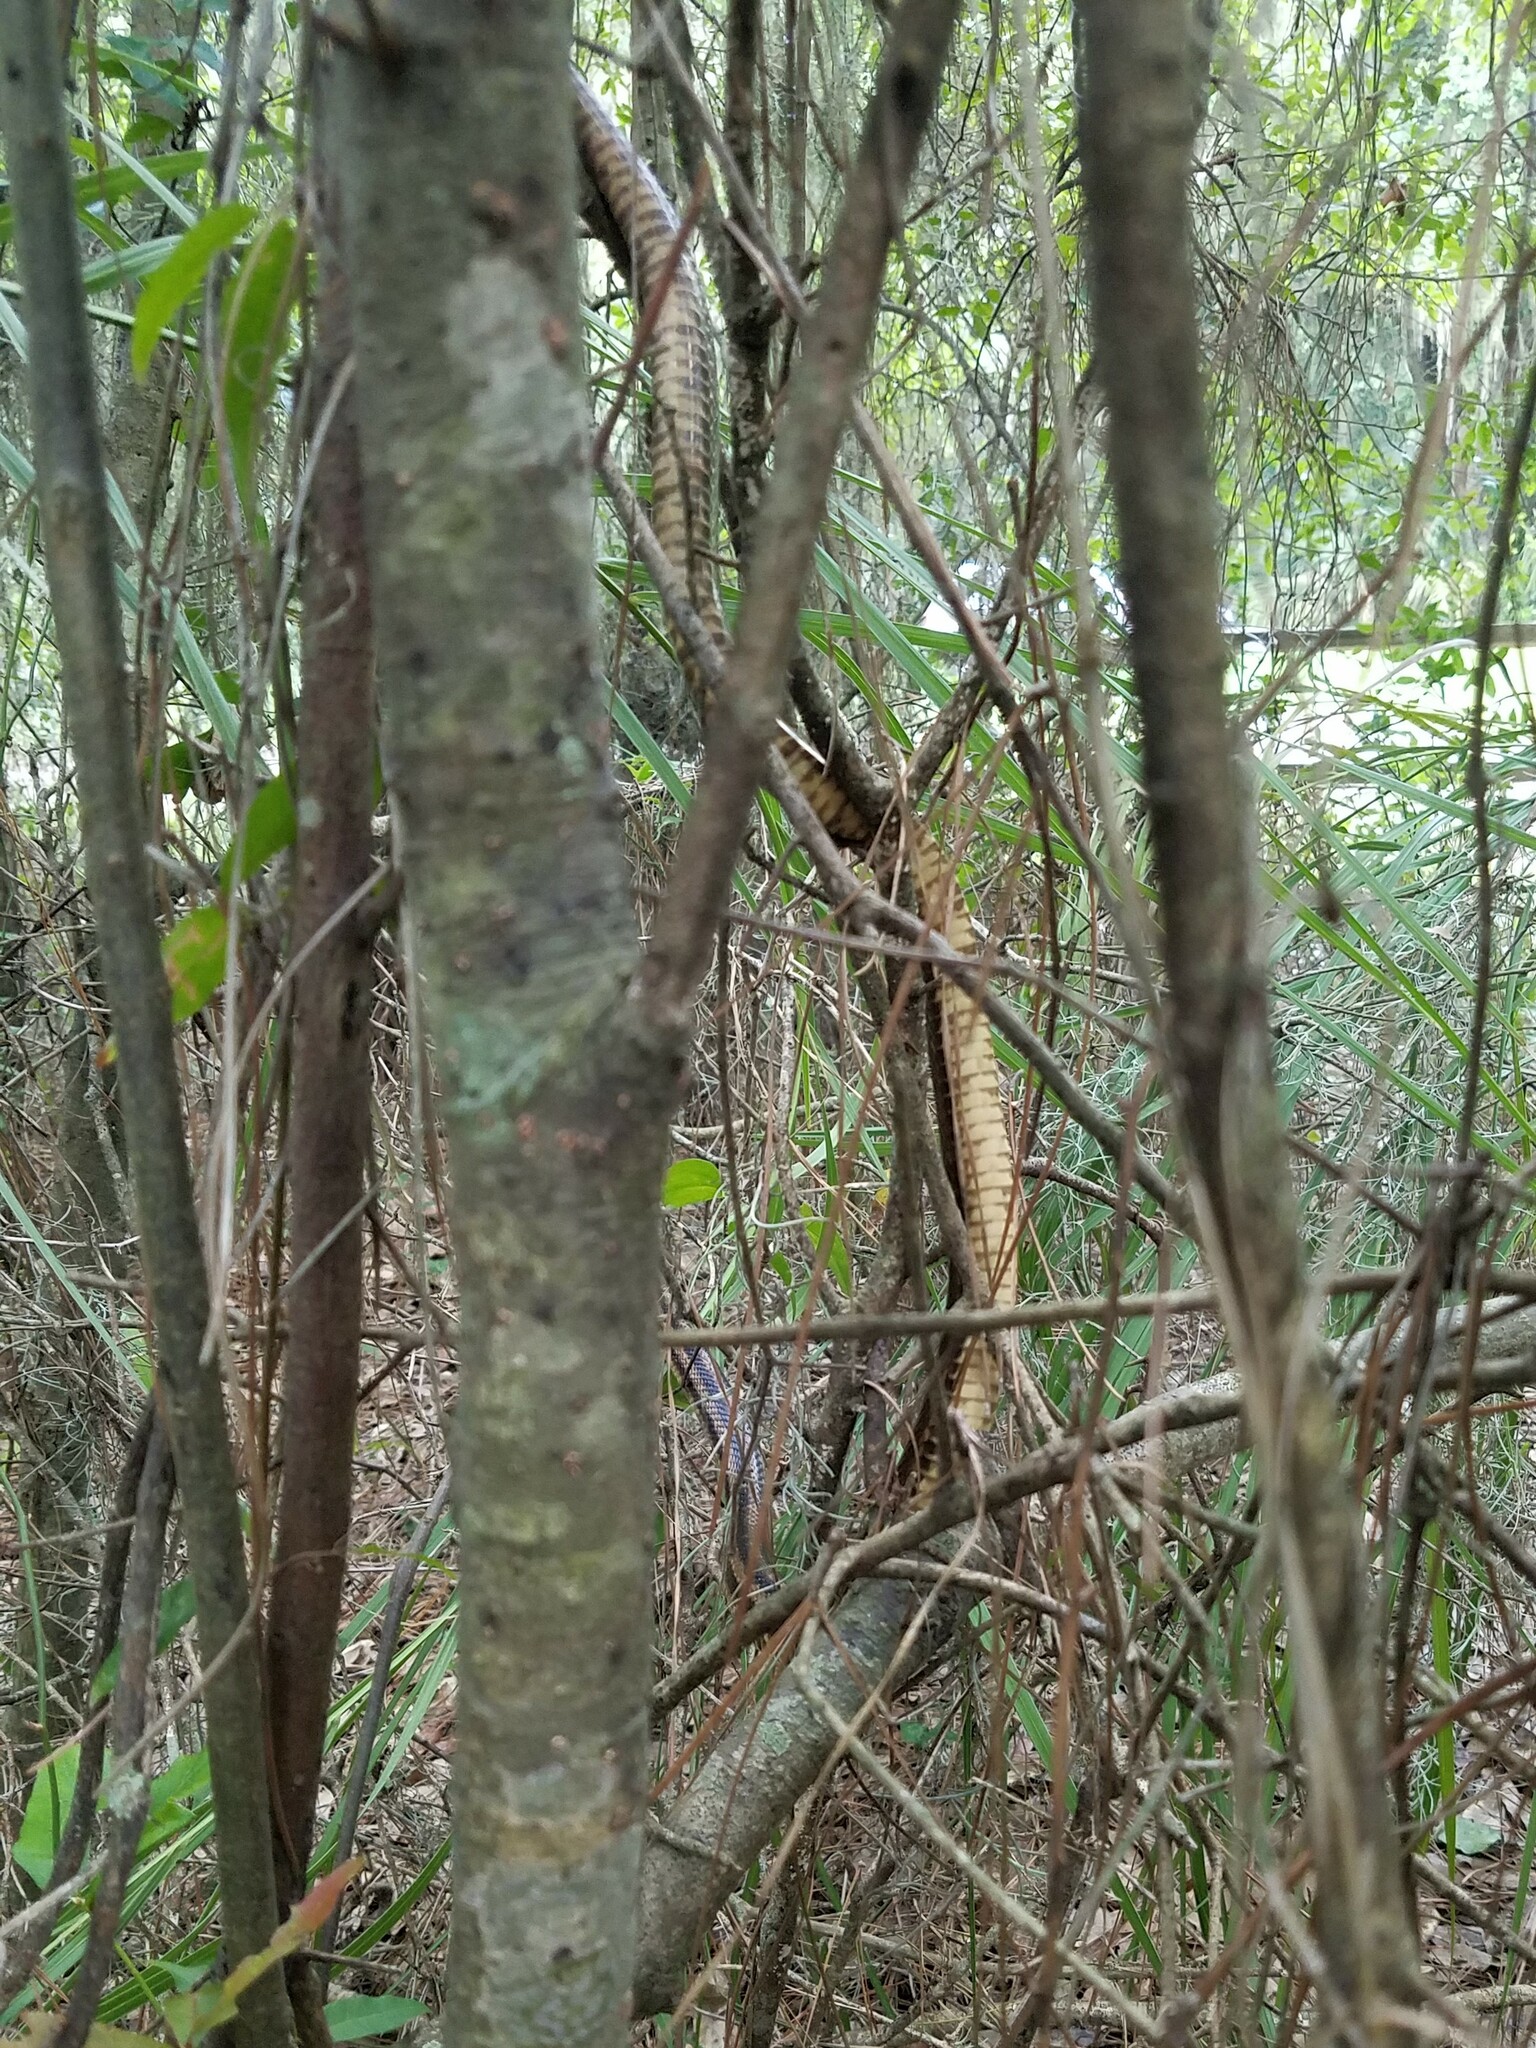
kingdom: Animalia
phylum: Chordata
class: Squamata
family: Colubridae
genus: Pantherophis
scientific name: Pantherophis alleghaniensis
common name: Eastern rat snake
